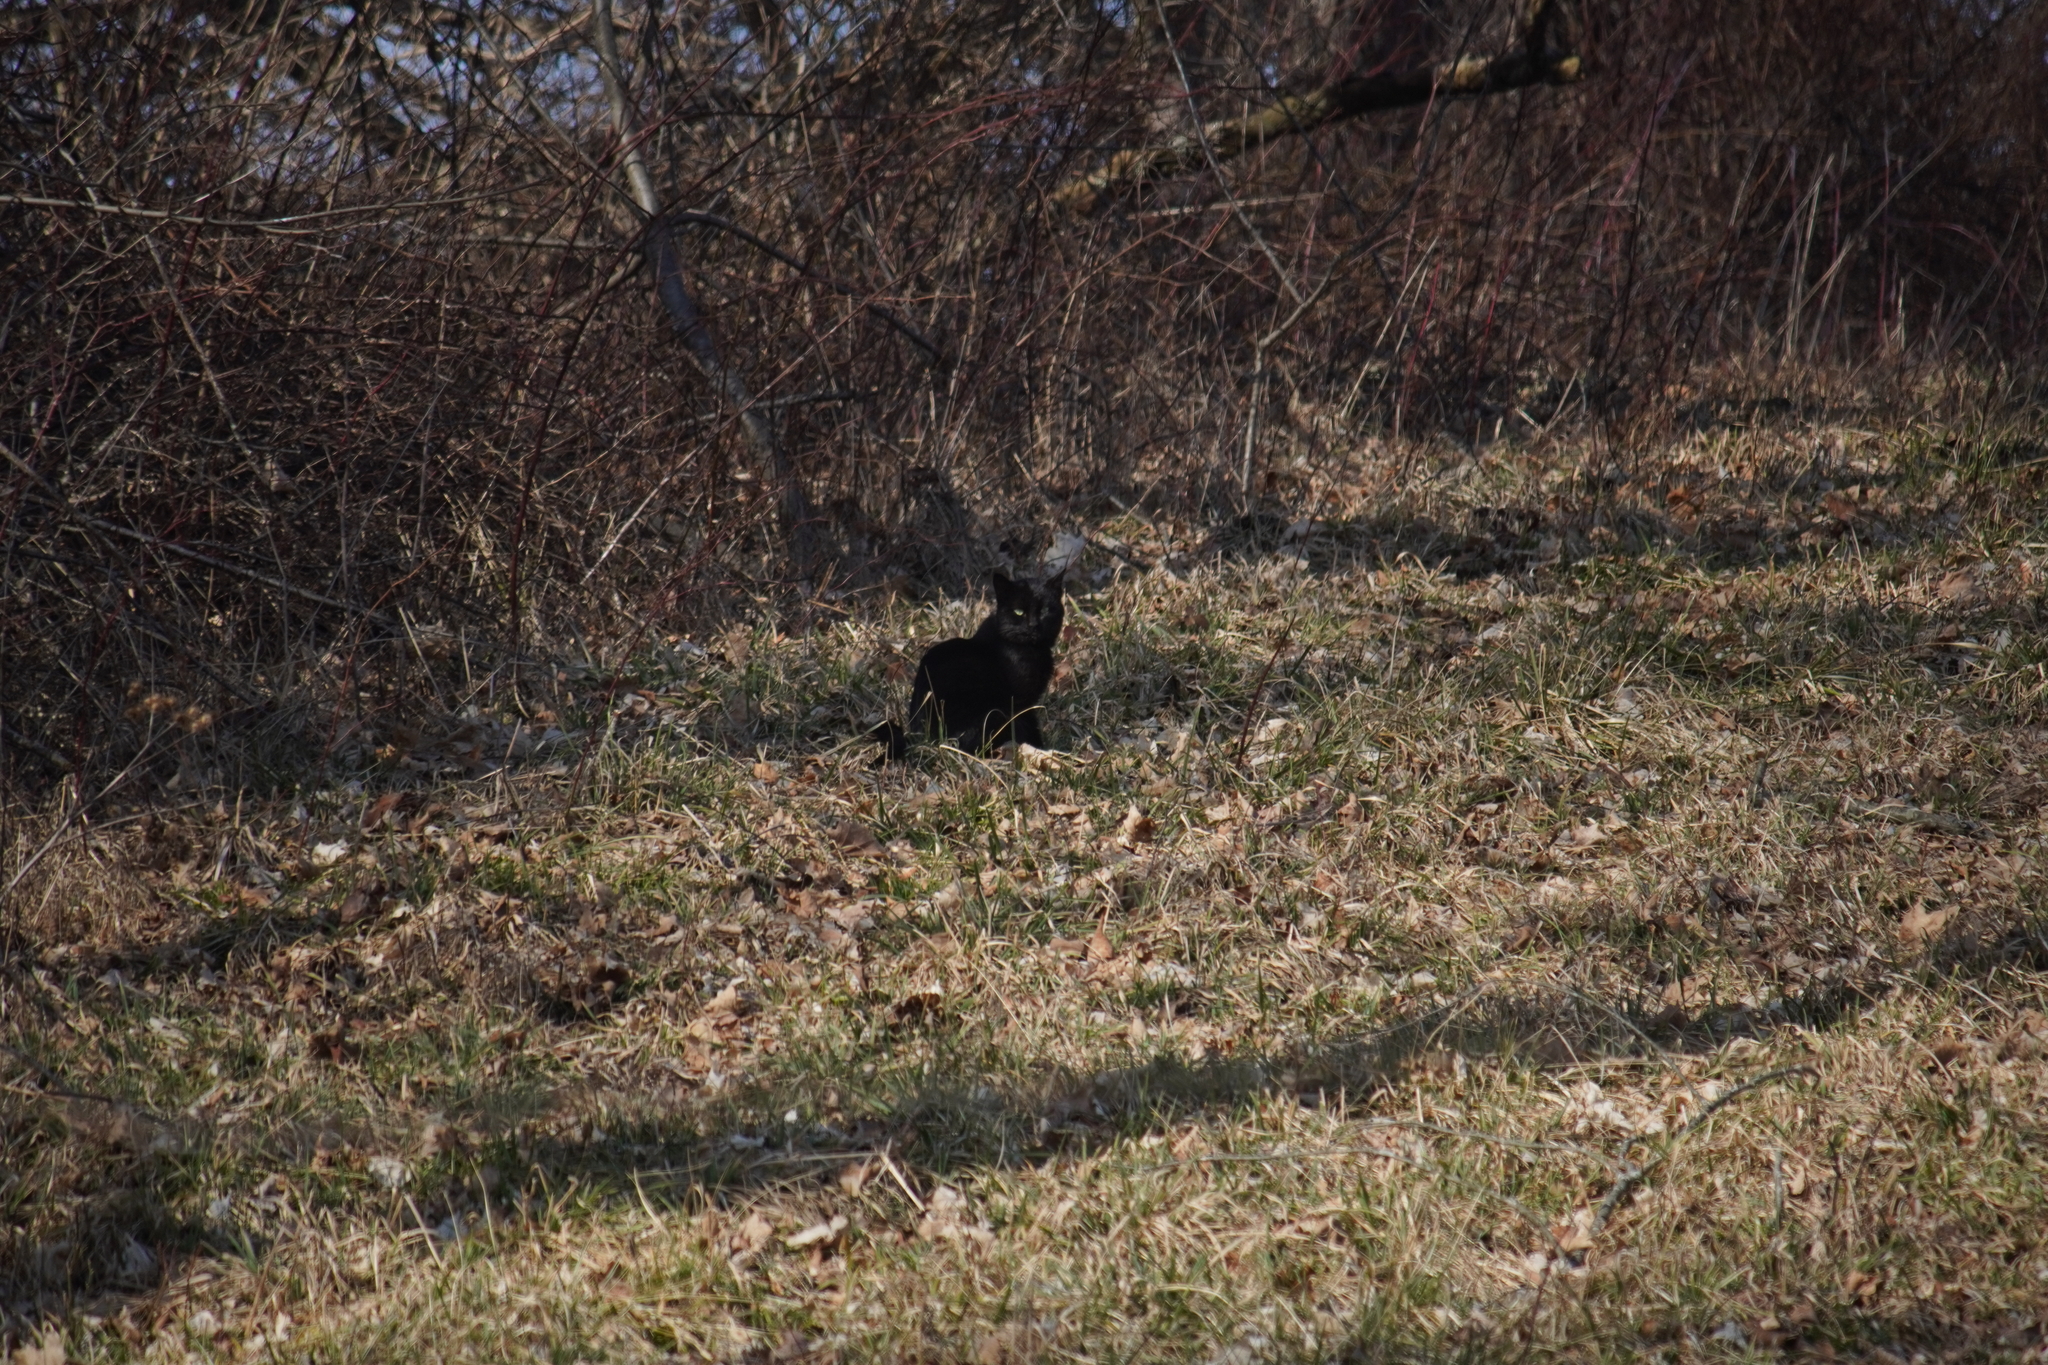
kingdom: Animalia
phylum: Chordata
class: Mammalia
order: Carnivora
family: Felidae
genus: Felis
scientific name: Felis catus
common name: Domestic cat
